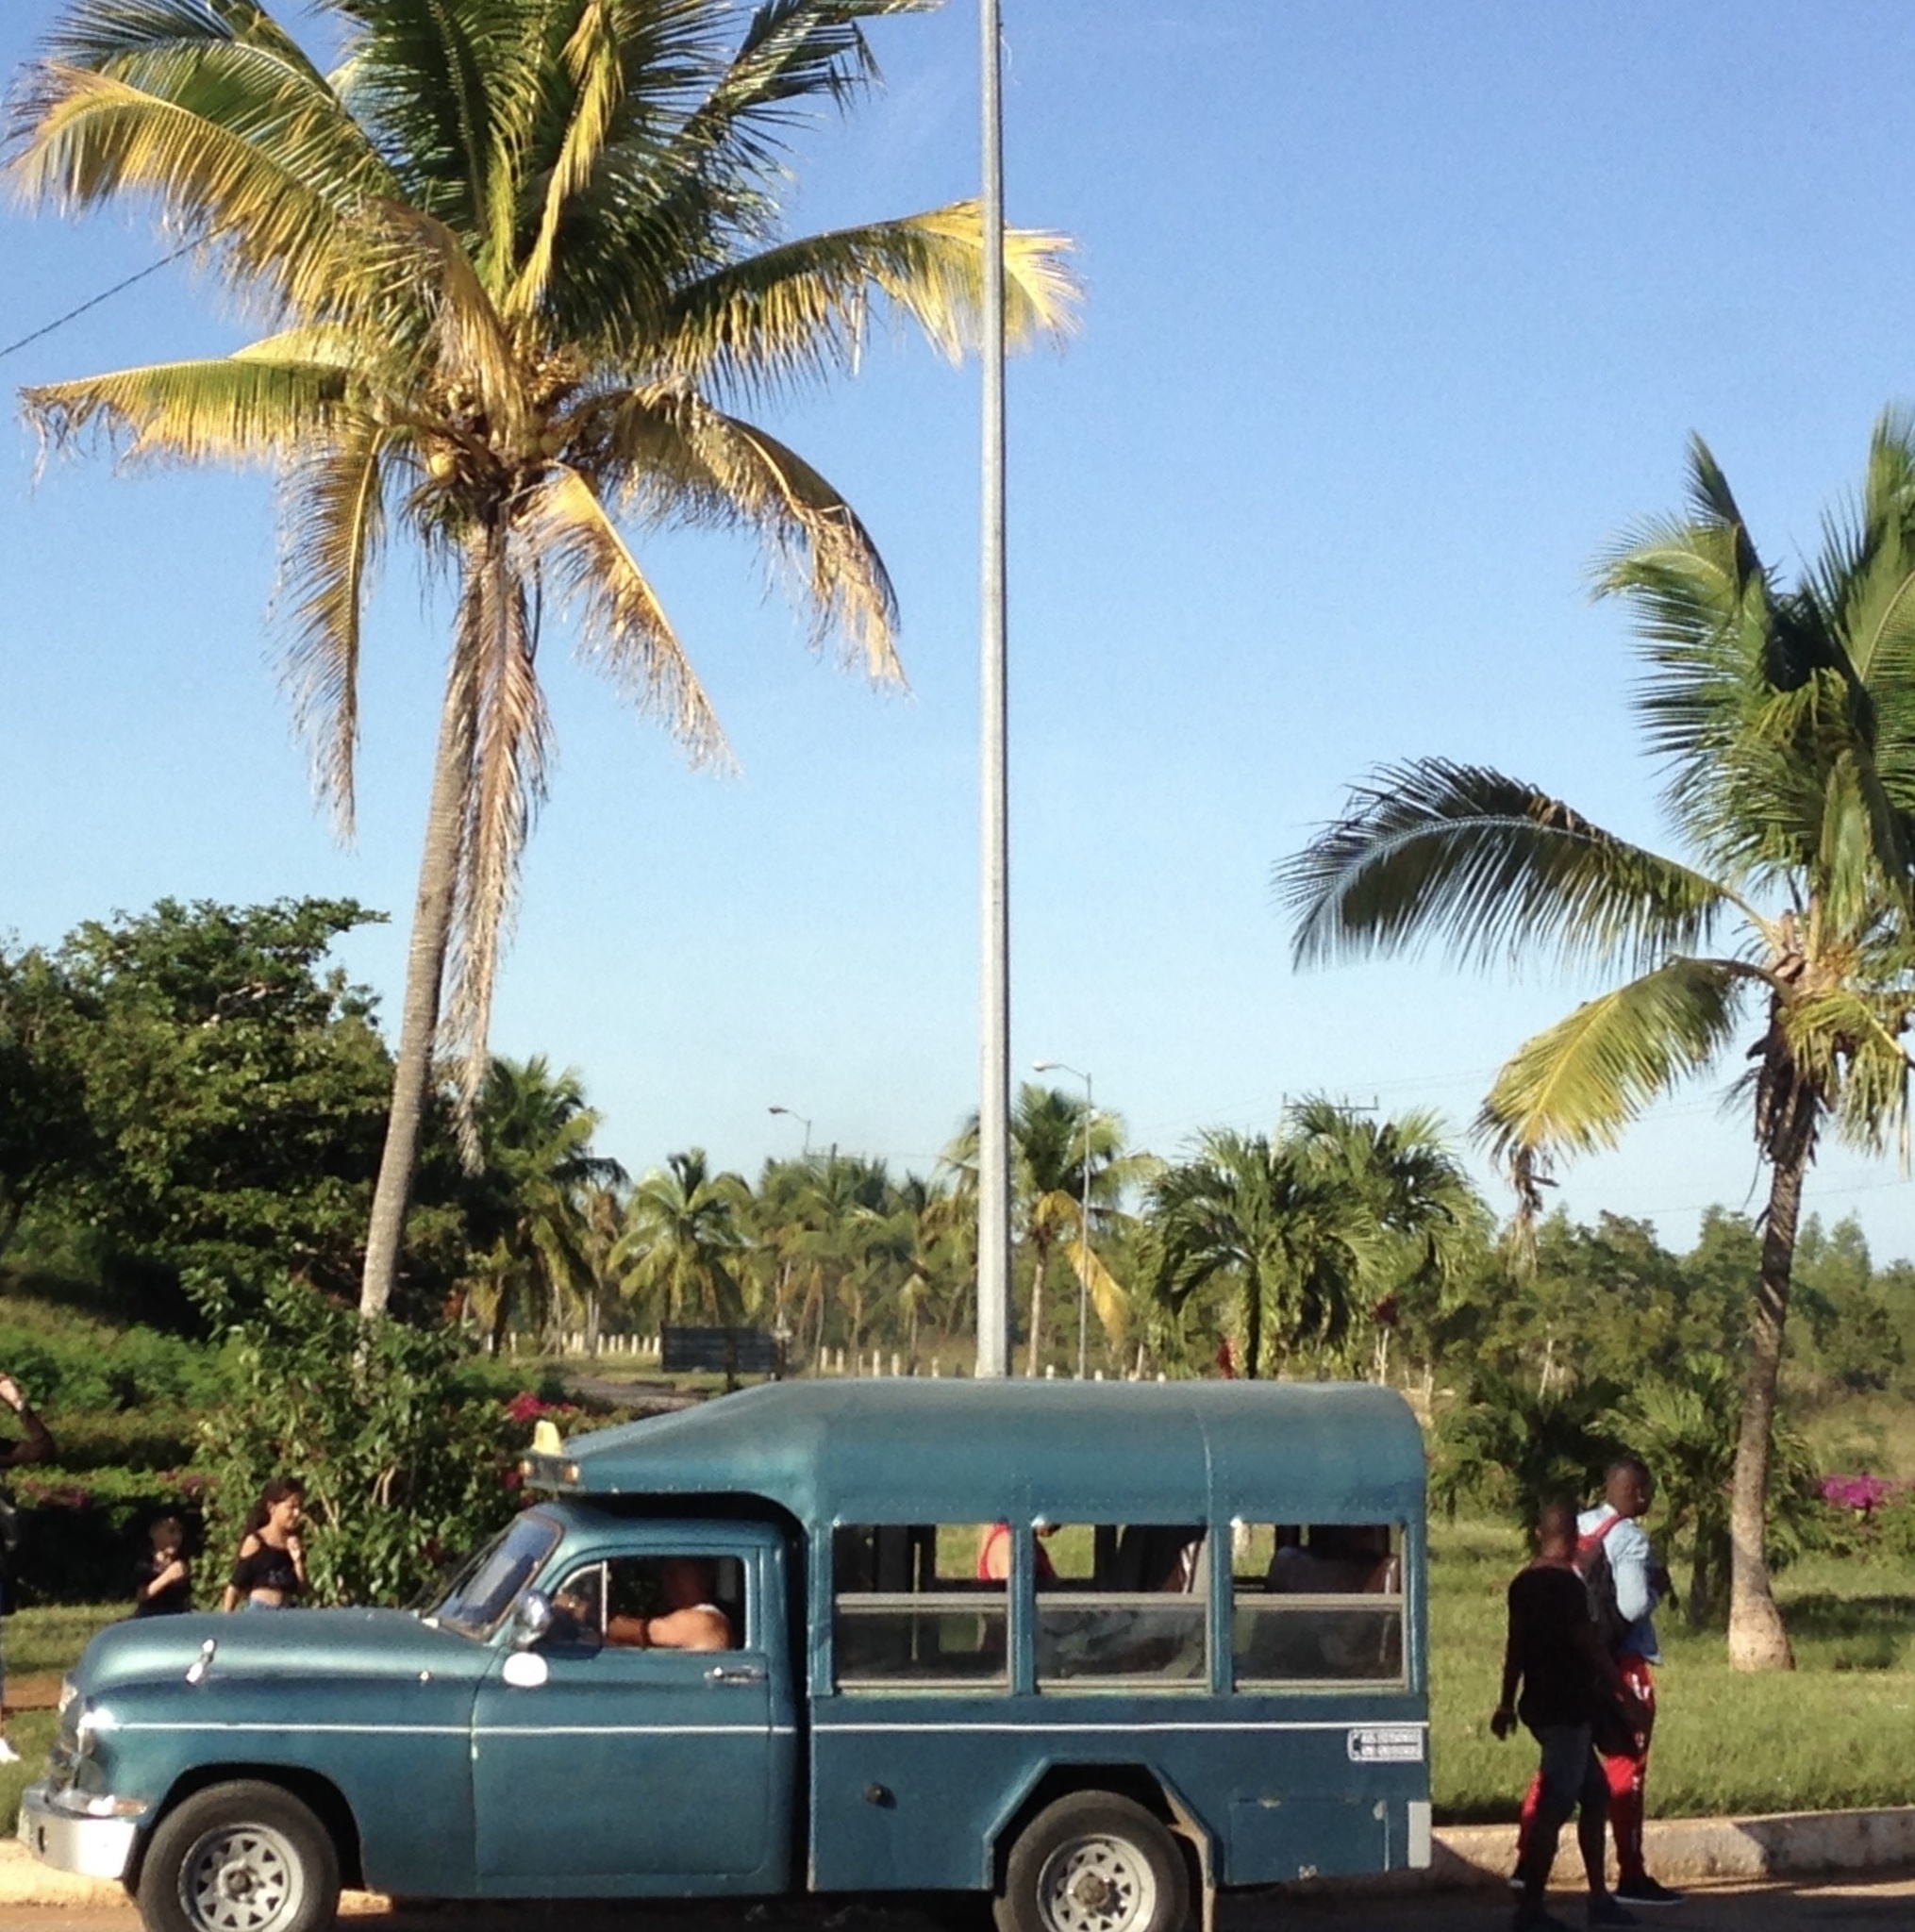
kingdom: Plantae
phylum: Tracheophyta
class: Liliopsida
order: Arecales
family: Arecaceae
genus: Cocos
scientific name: Cocos nucifera
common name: Coconut palm
